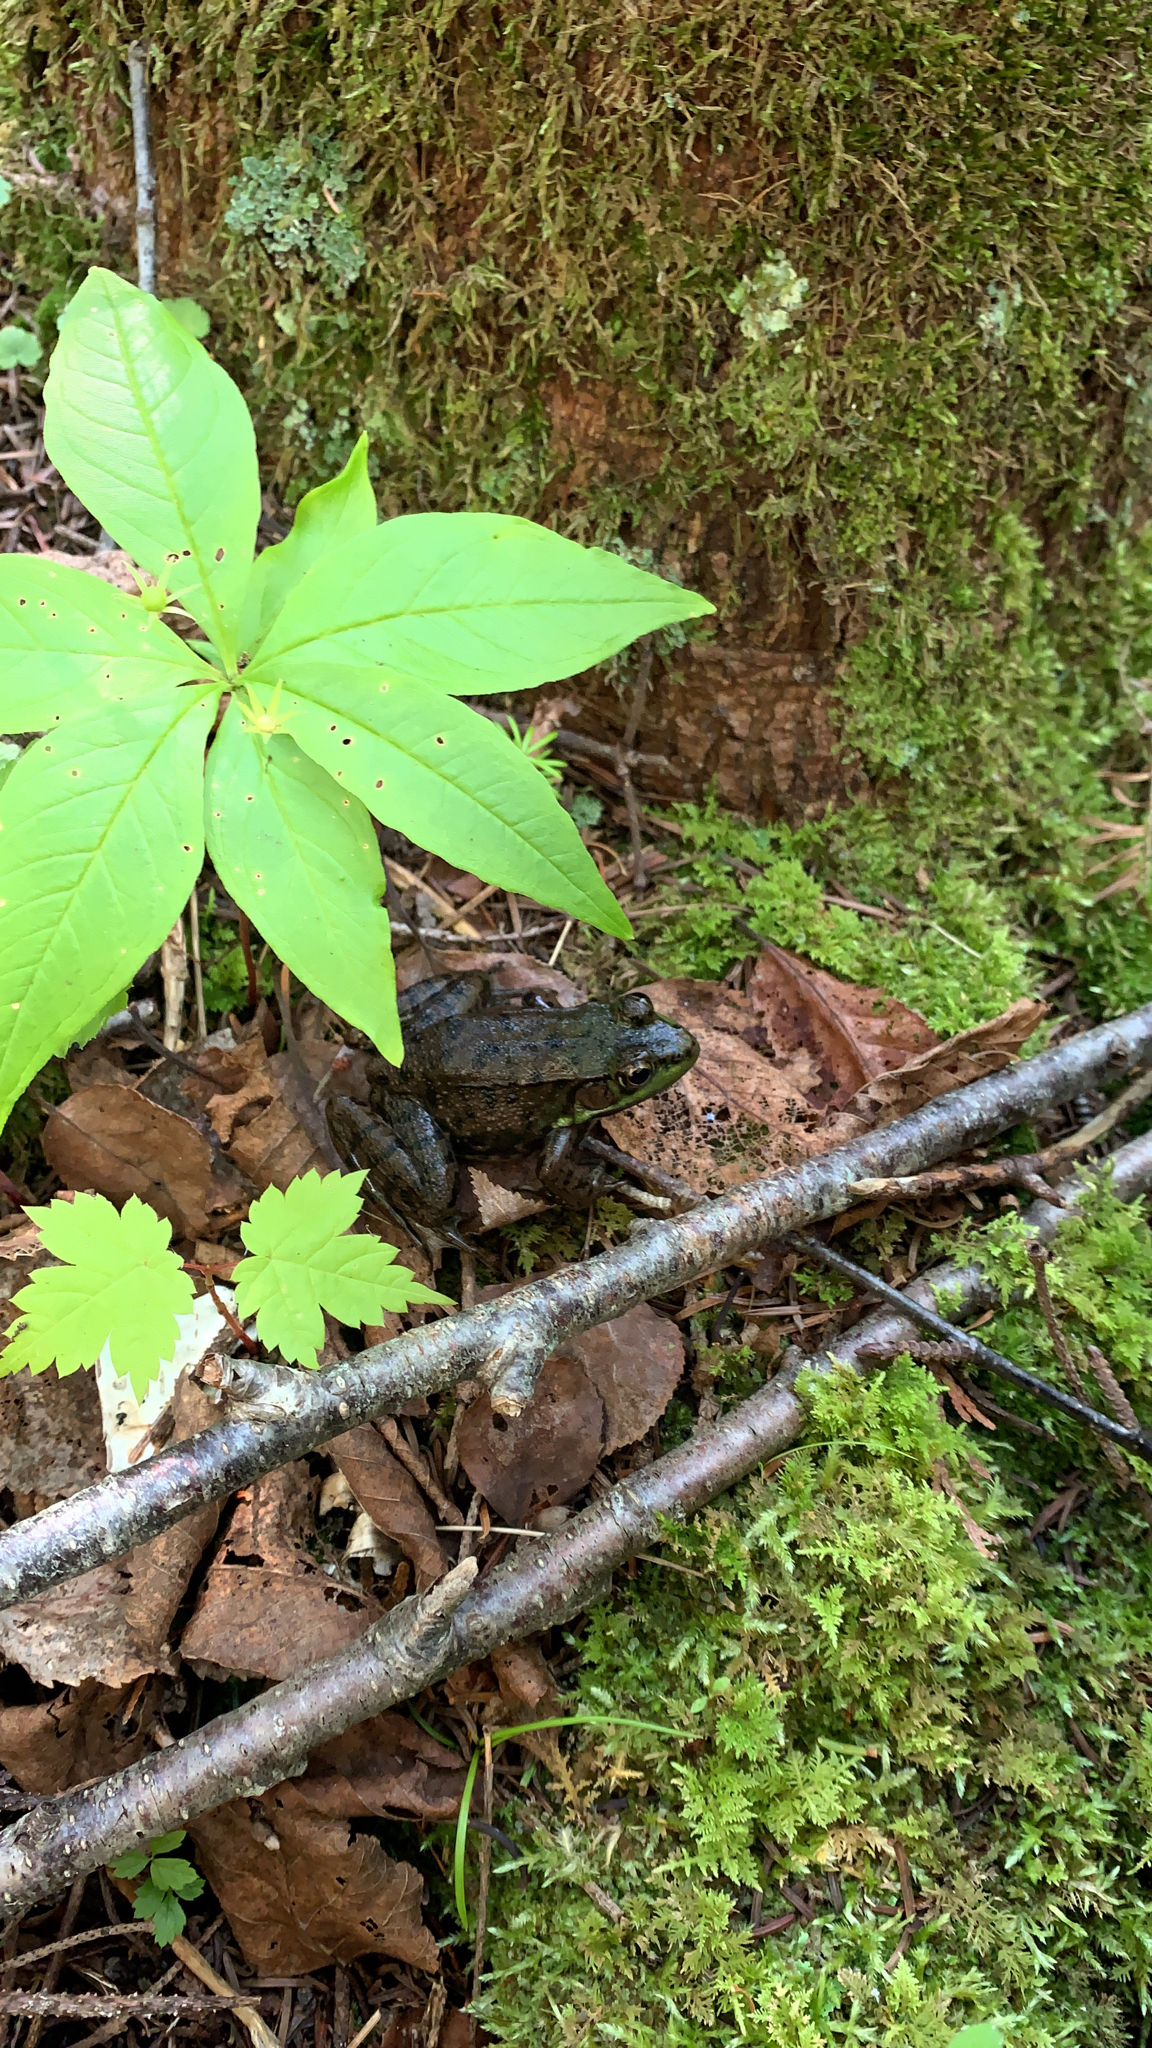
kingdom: Animalia
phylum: Chordata
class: Amphibia
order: Anura
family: Ranidae
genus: Lithobates
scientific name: Lithobates clamitans
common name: Green frog
